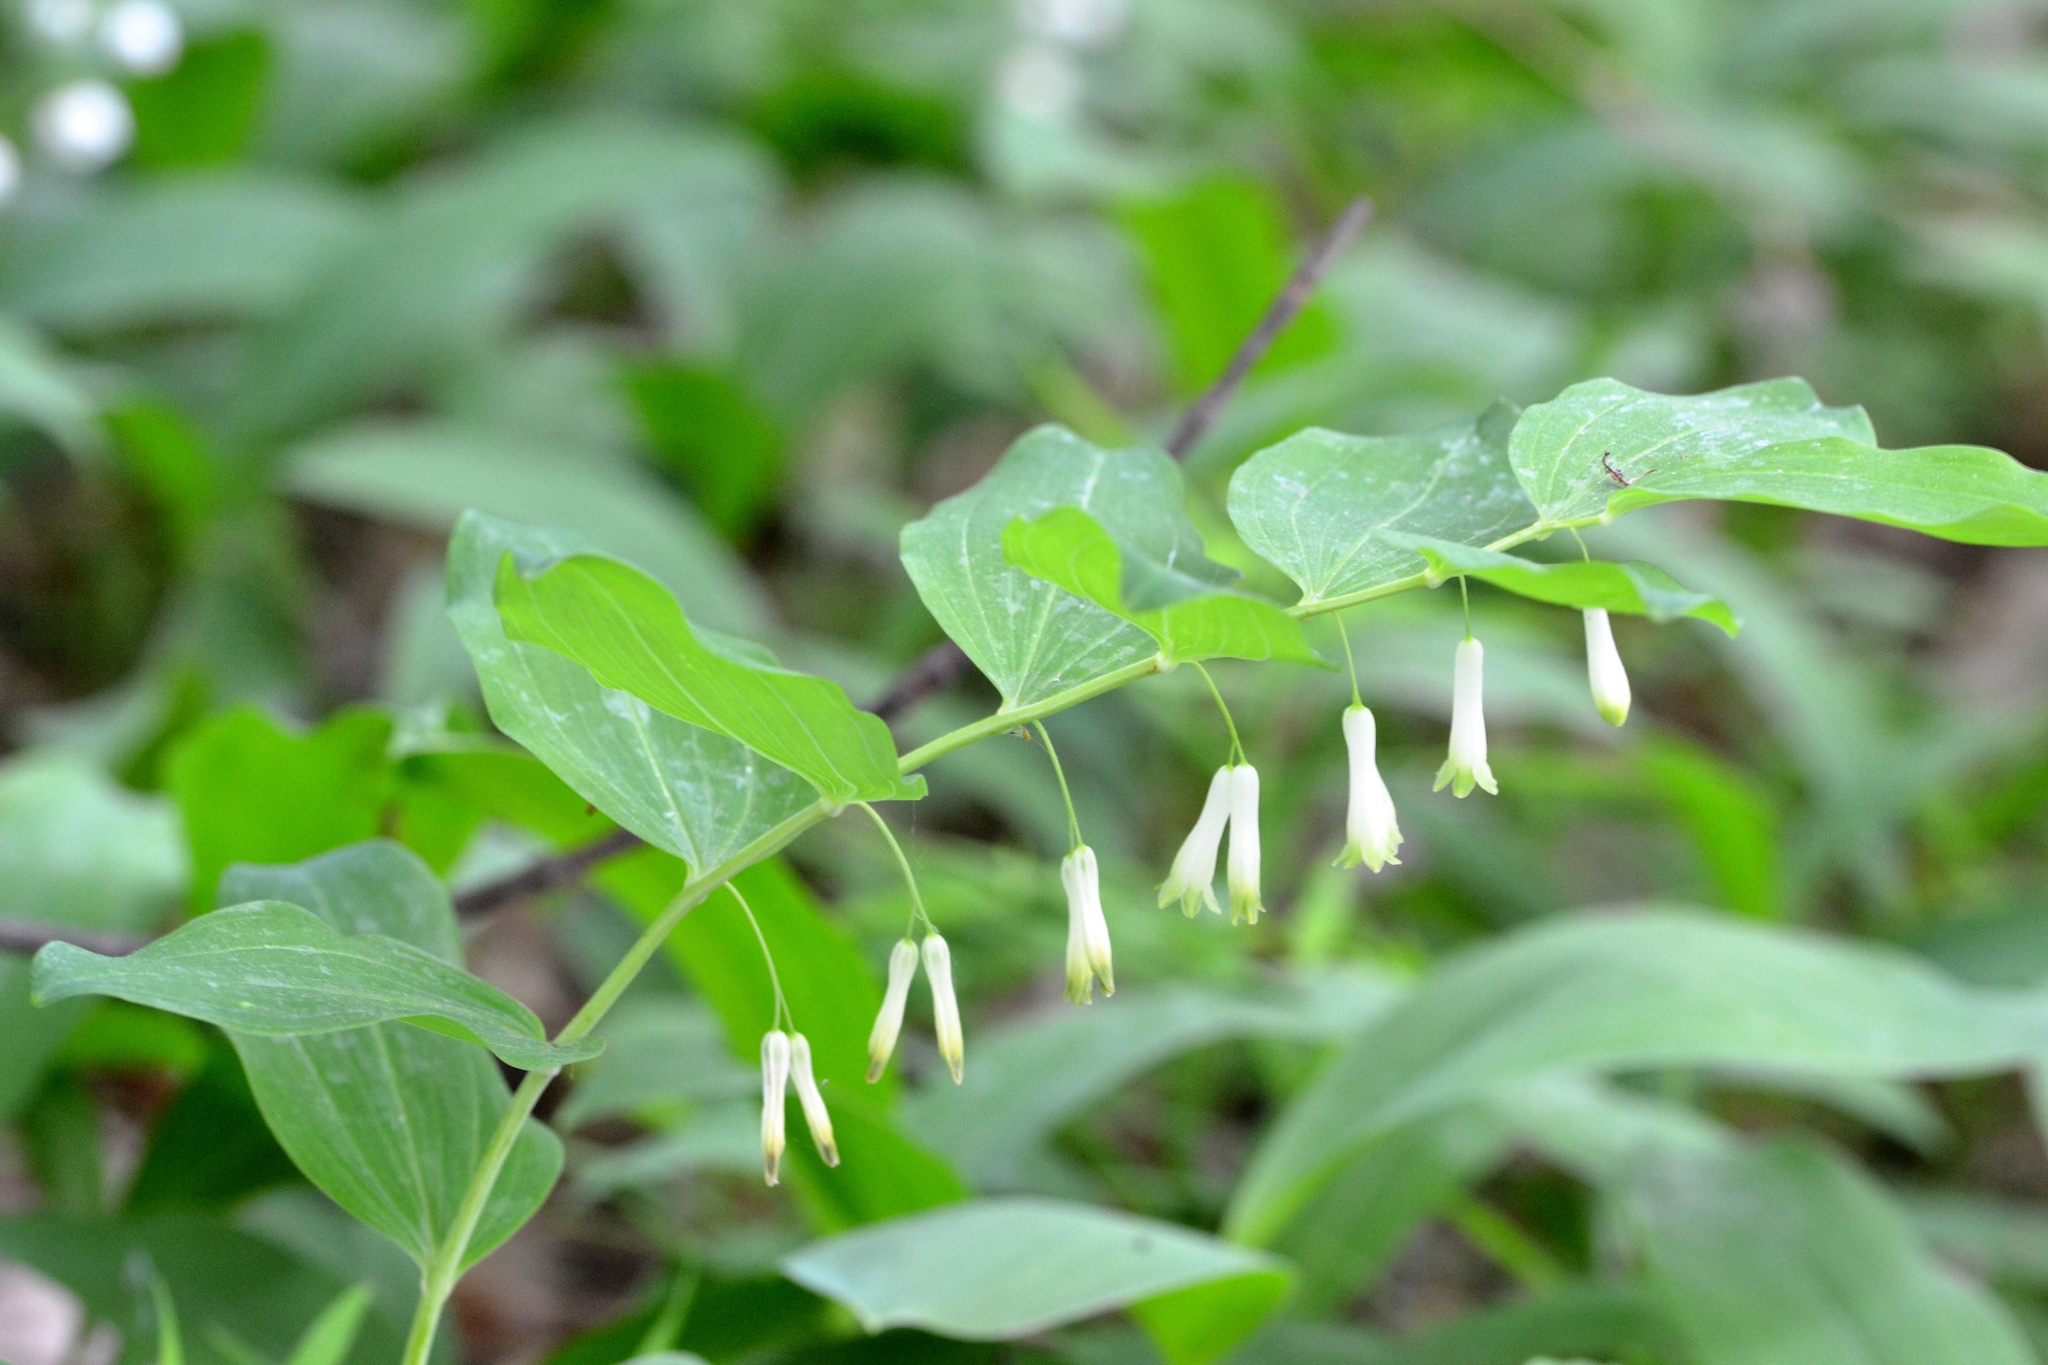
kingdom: Plantae
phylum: Tracheophyta
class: Liliopsida
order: Asparagales
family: Asparagaceae
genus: Polygonatum
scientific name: Polygonatum multiflorum
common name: Solomon's-seal
